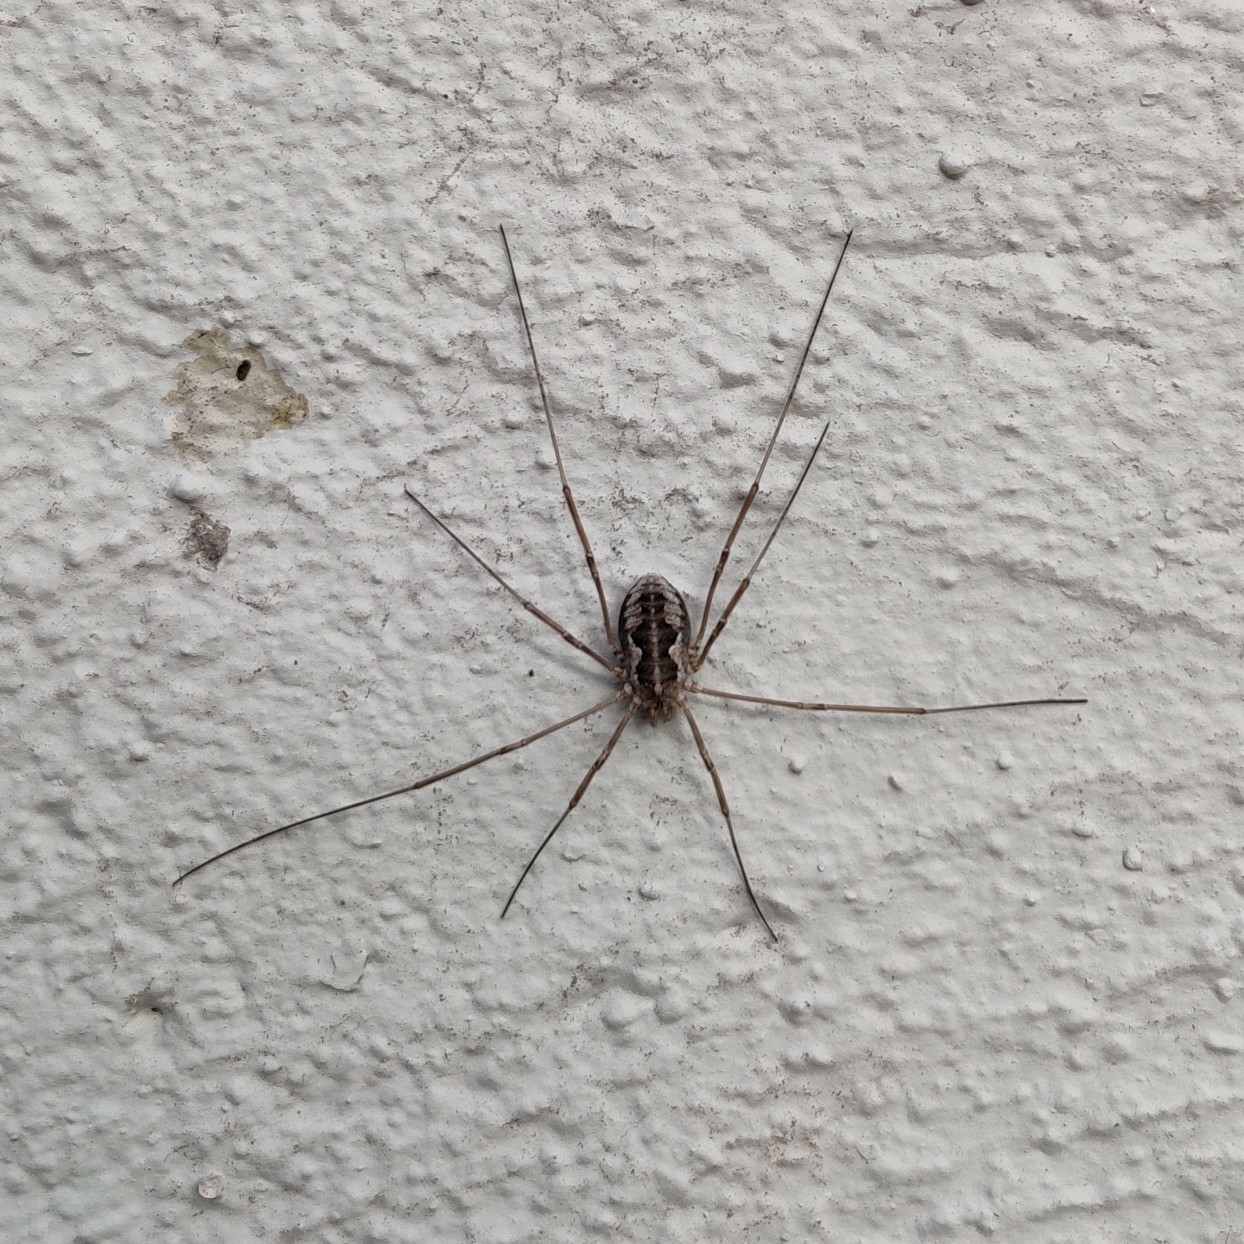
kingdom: Animalia
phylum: Arthropoda
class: Arachnida
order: Opiliones
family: Phalangiidae
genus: Phalangium
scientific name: Phalangium opilio
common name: Daddy longleg
